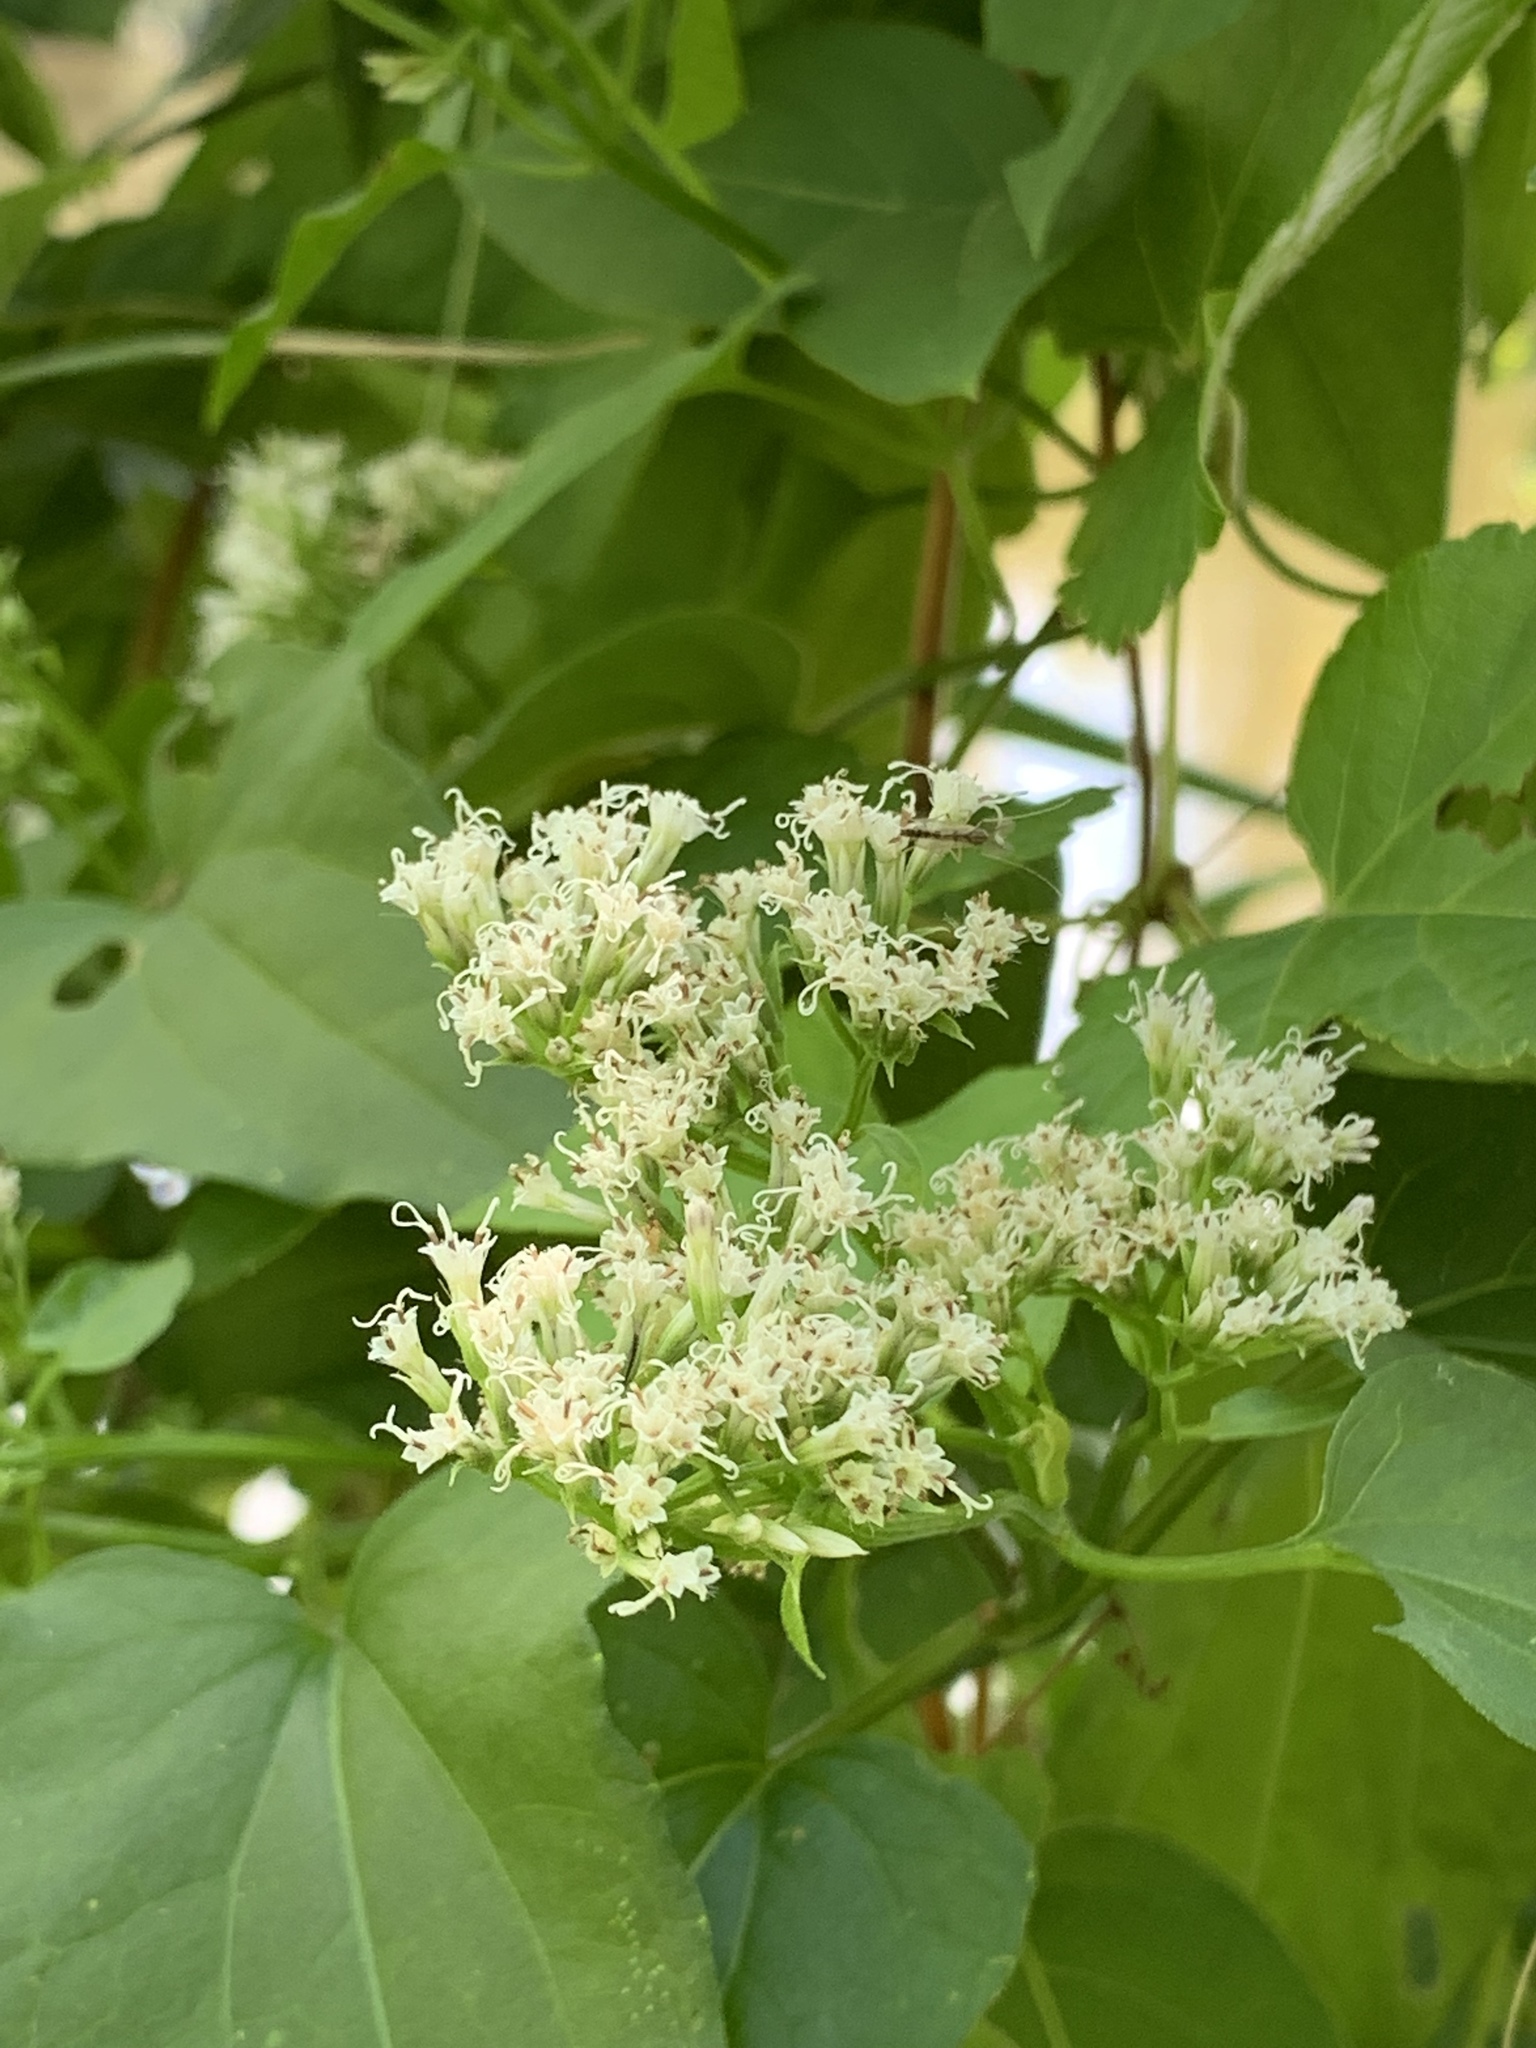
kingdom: Plantae
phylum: Tracheophyta
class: Magnoliopsida
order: Asterales
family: Asteraceae
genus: Mikania
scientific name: Mikania scandens
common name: Climbing hempvine
